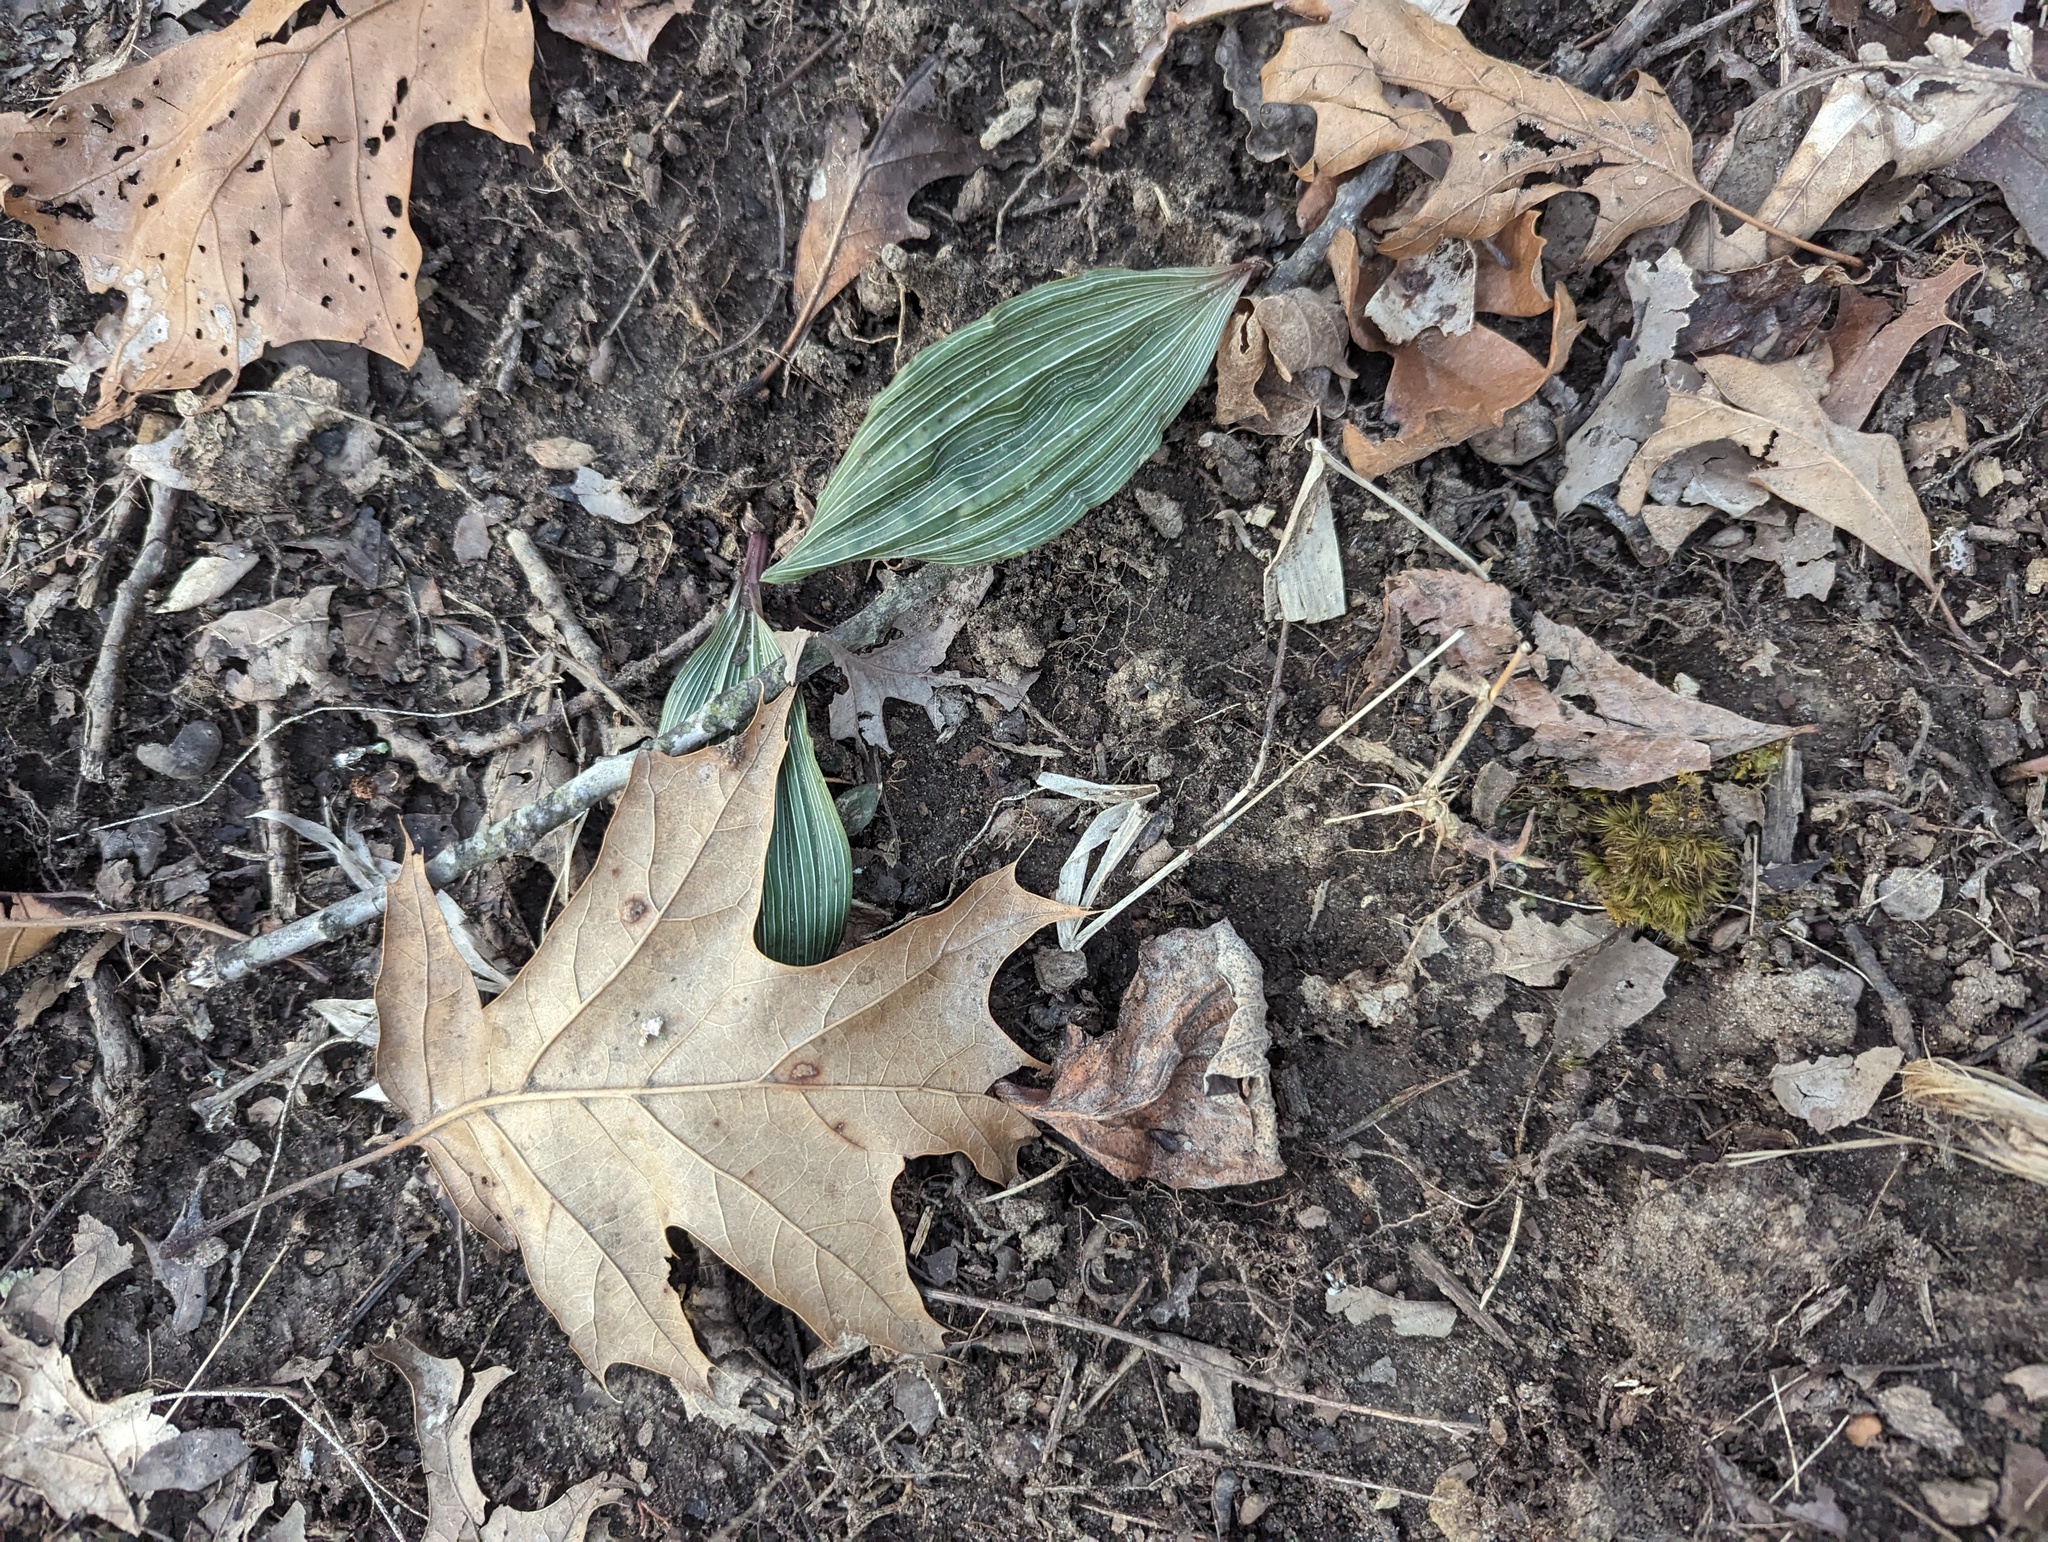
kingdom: Plantae
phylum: Tracheophyta
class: Liliopsida
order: Asparagales
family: Orchidaceae
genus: Aplectrum
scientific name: Aplectrum hyemale
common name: Adam-and-eve
